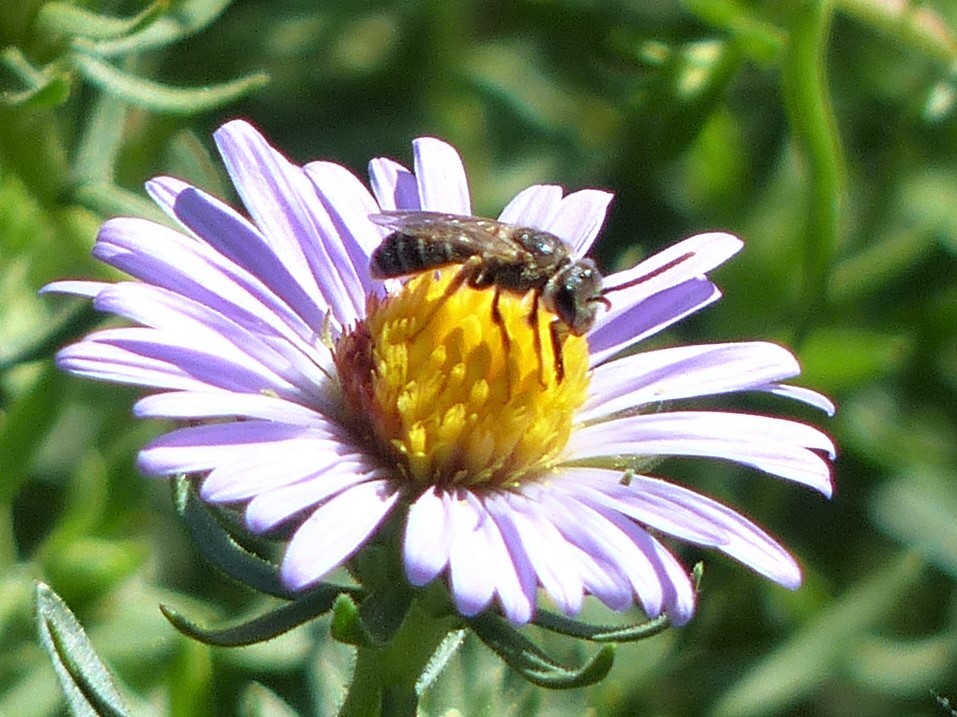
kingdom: Animalia
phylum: Arthropoda
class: Insecta
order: Hymenoptera
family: Halictidae
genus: Halictus
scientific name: Halictus ligatus
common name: Ligated furrow bee
